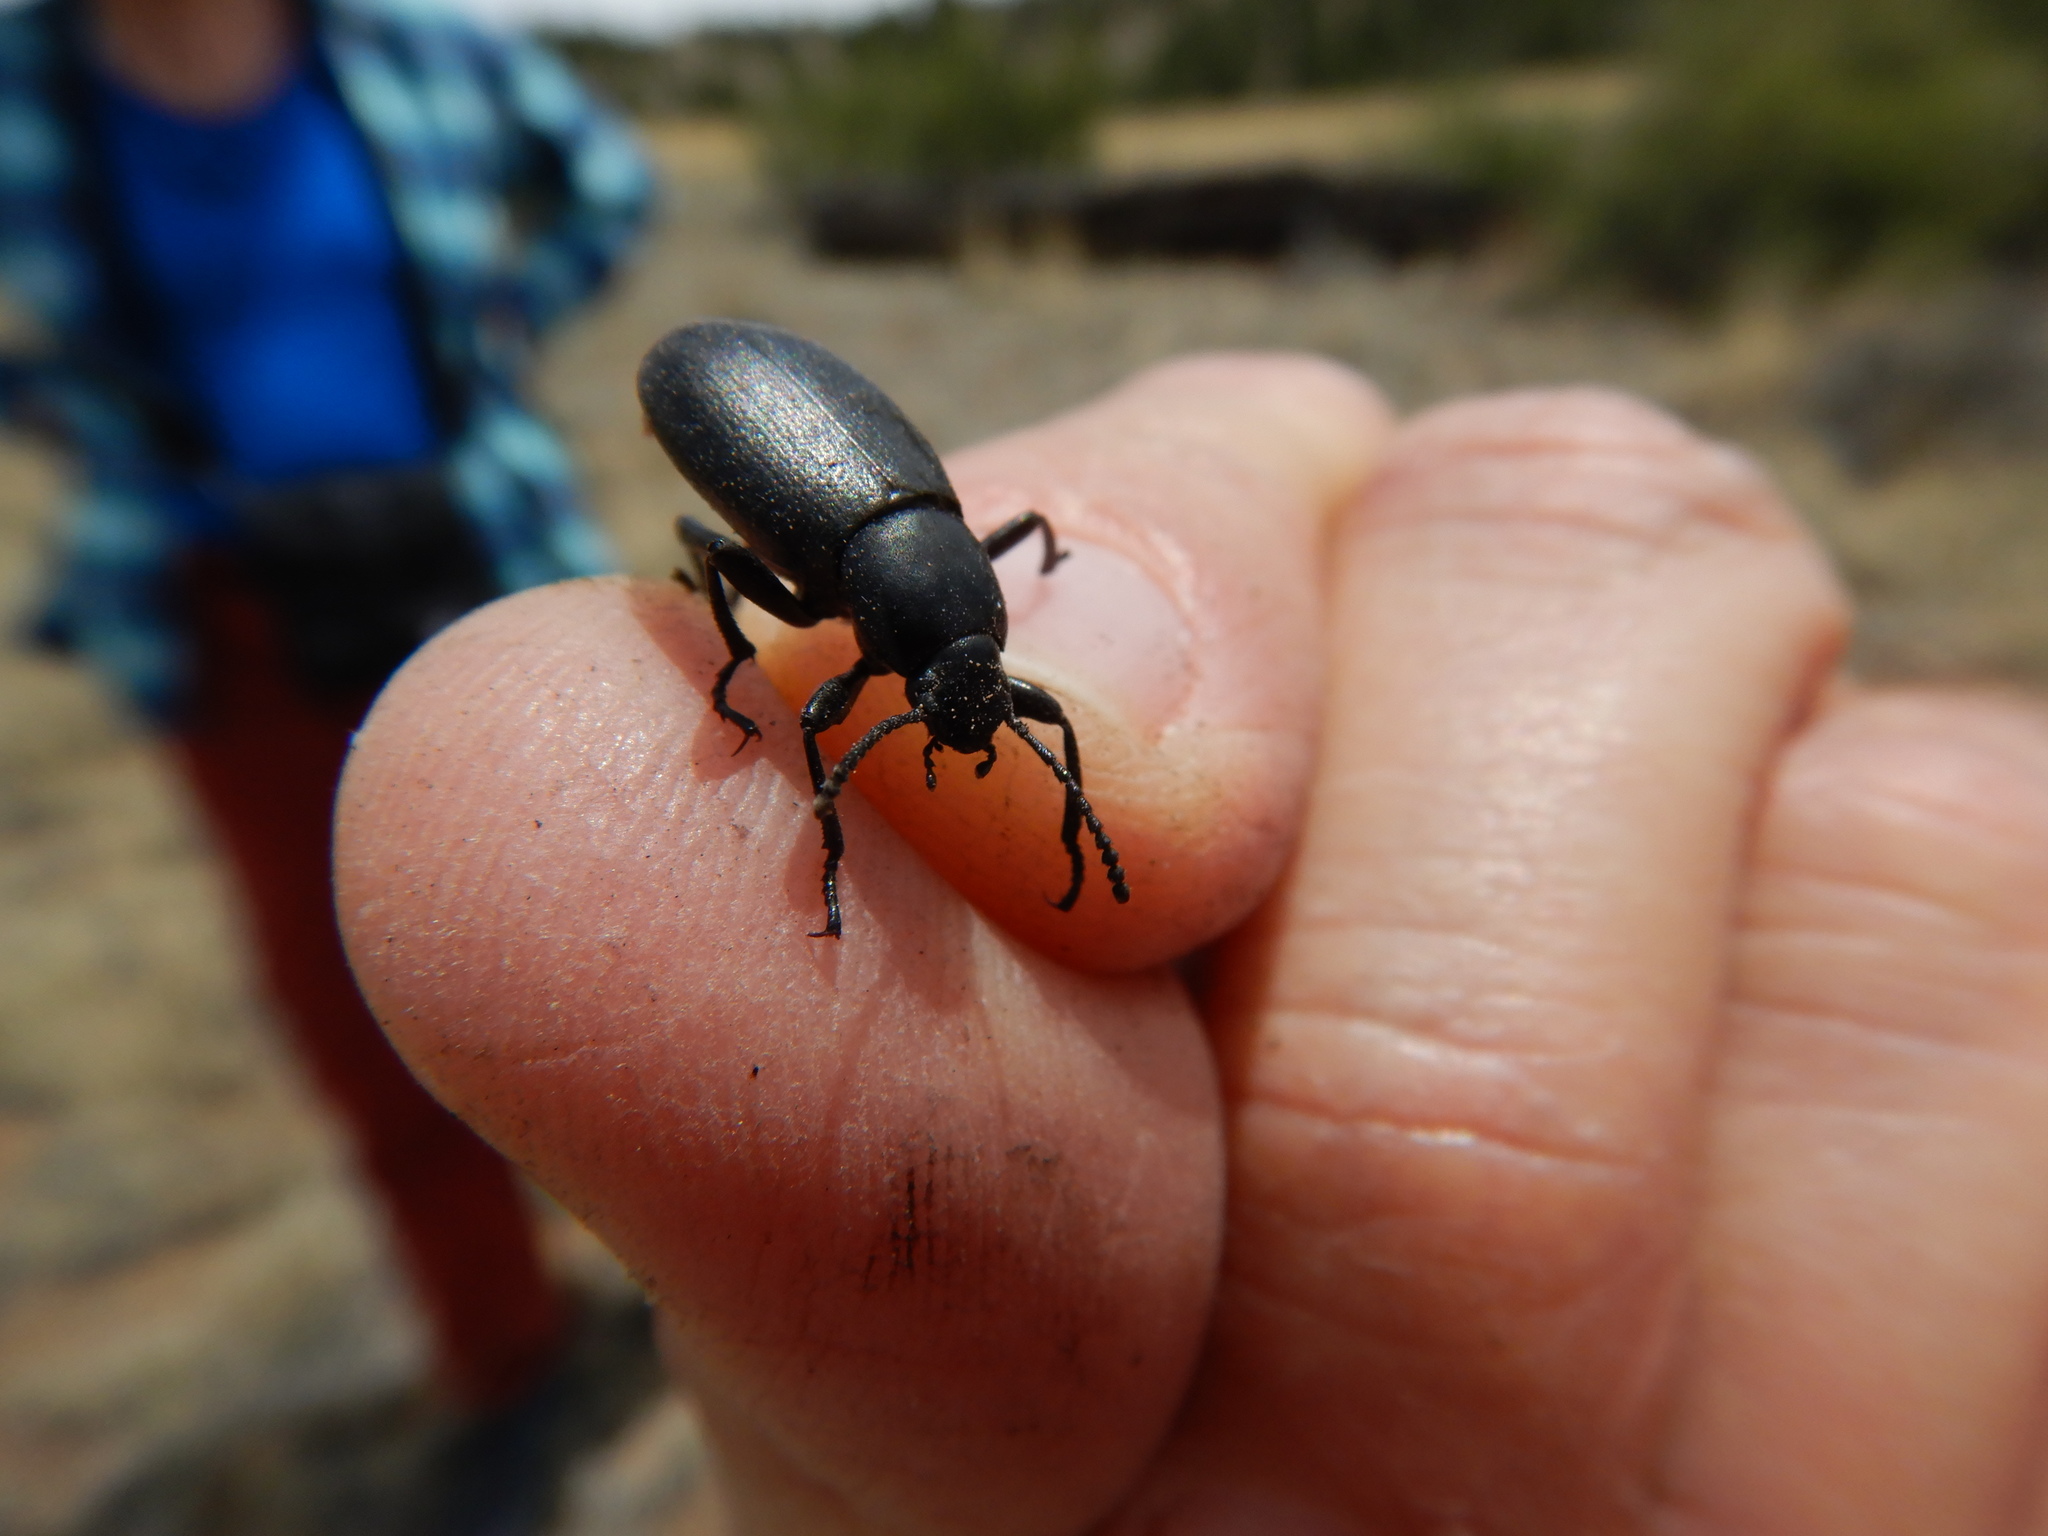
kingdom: Animalia
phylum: Arthropoda
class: Insecta
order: Coleoptera
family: Tenebrionidae
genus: Eleodes
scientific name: Eleodes extricata
